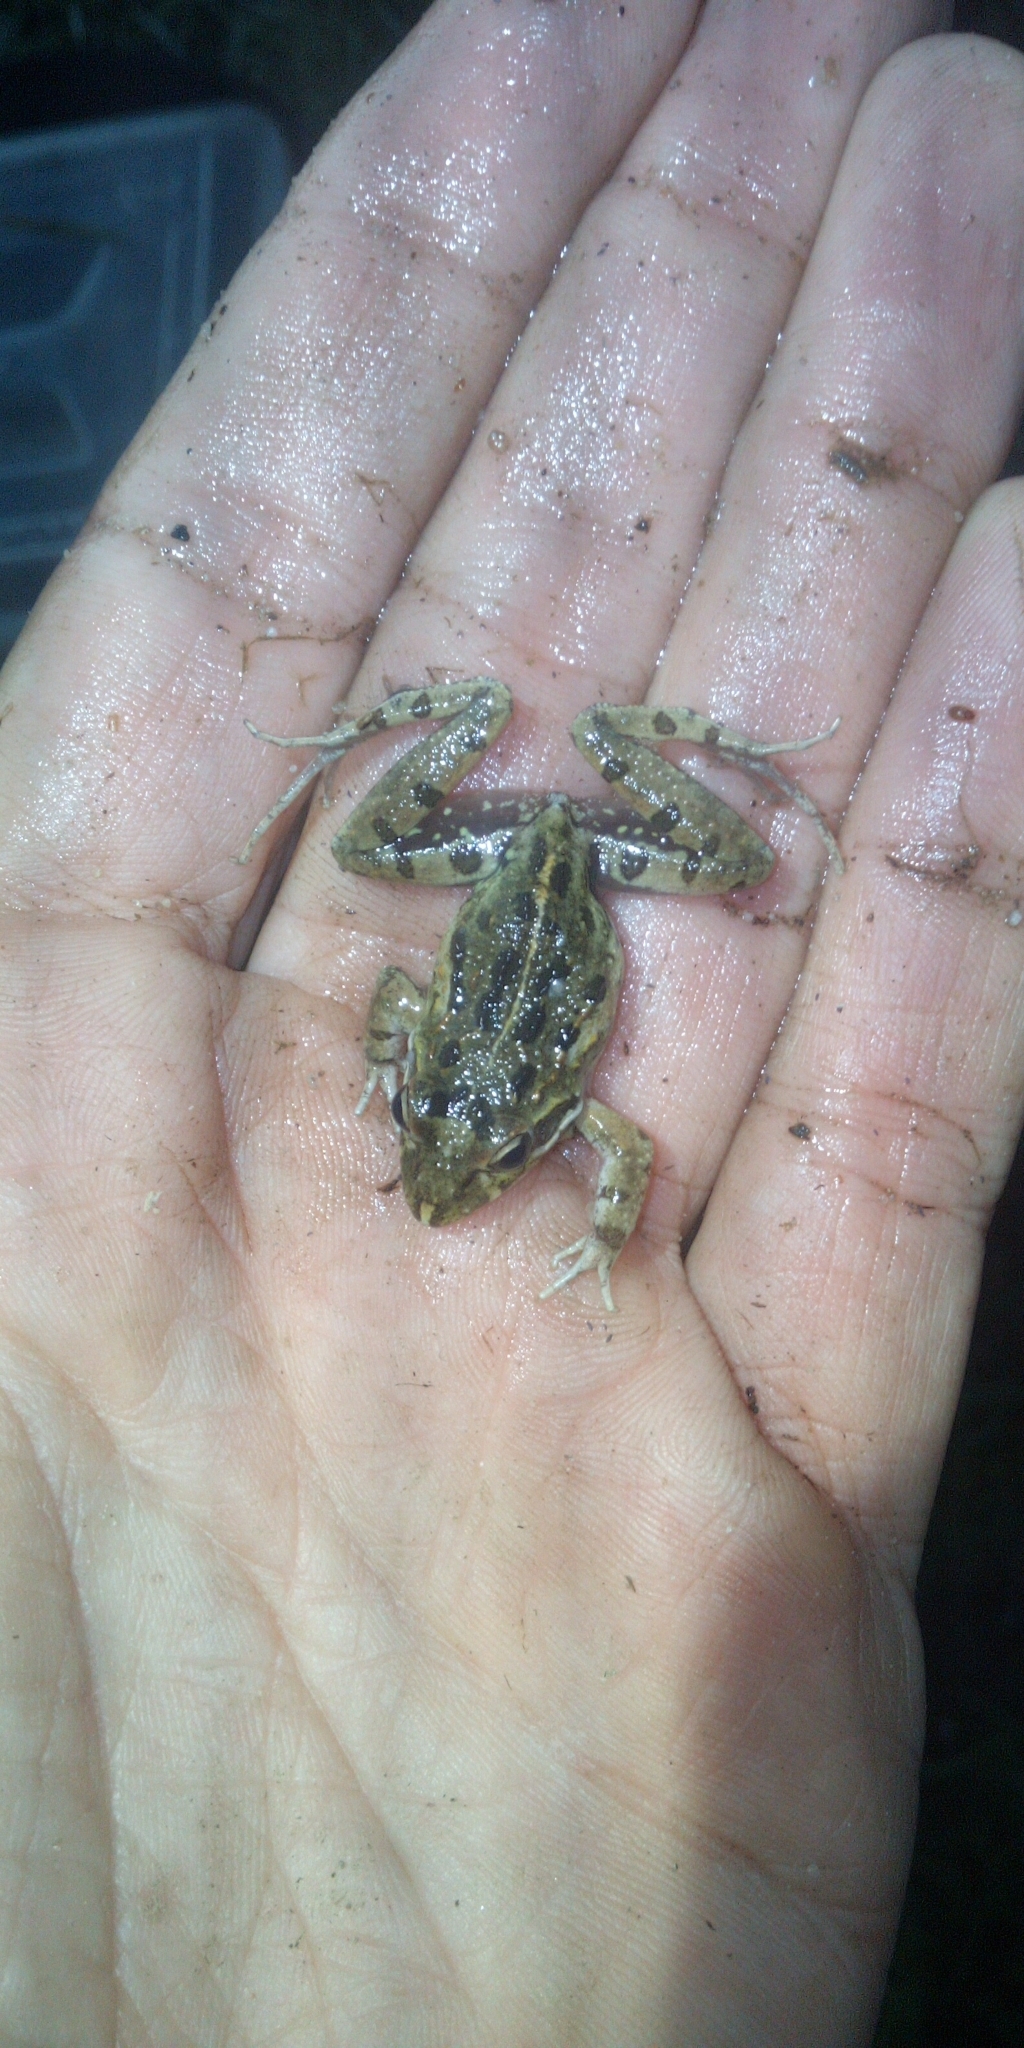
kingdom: Animalia
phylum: Chordata
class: Amphibia
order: Anura
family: Pyxicephalidae
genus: Strongylopus
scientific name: Strongylopus grayii
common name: Gray's stream frog
